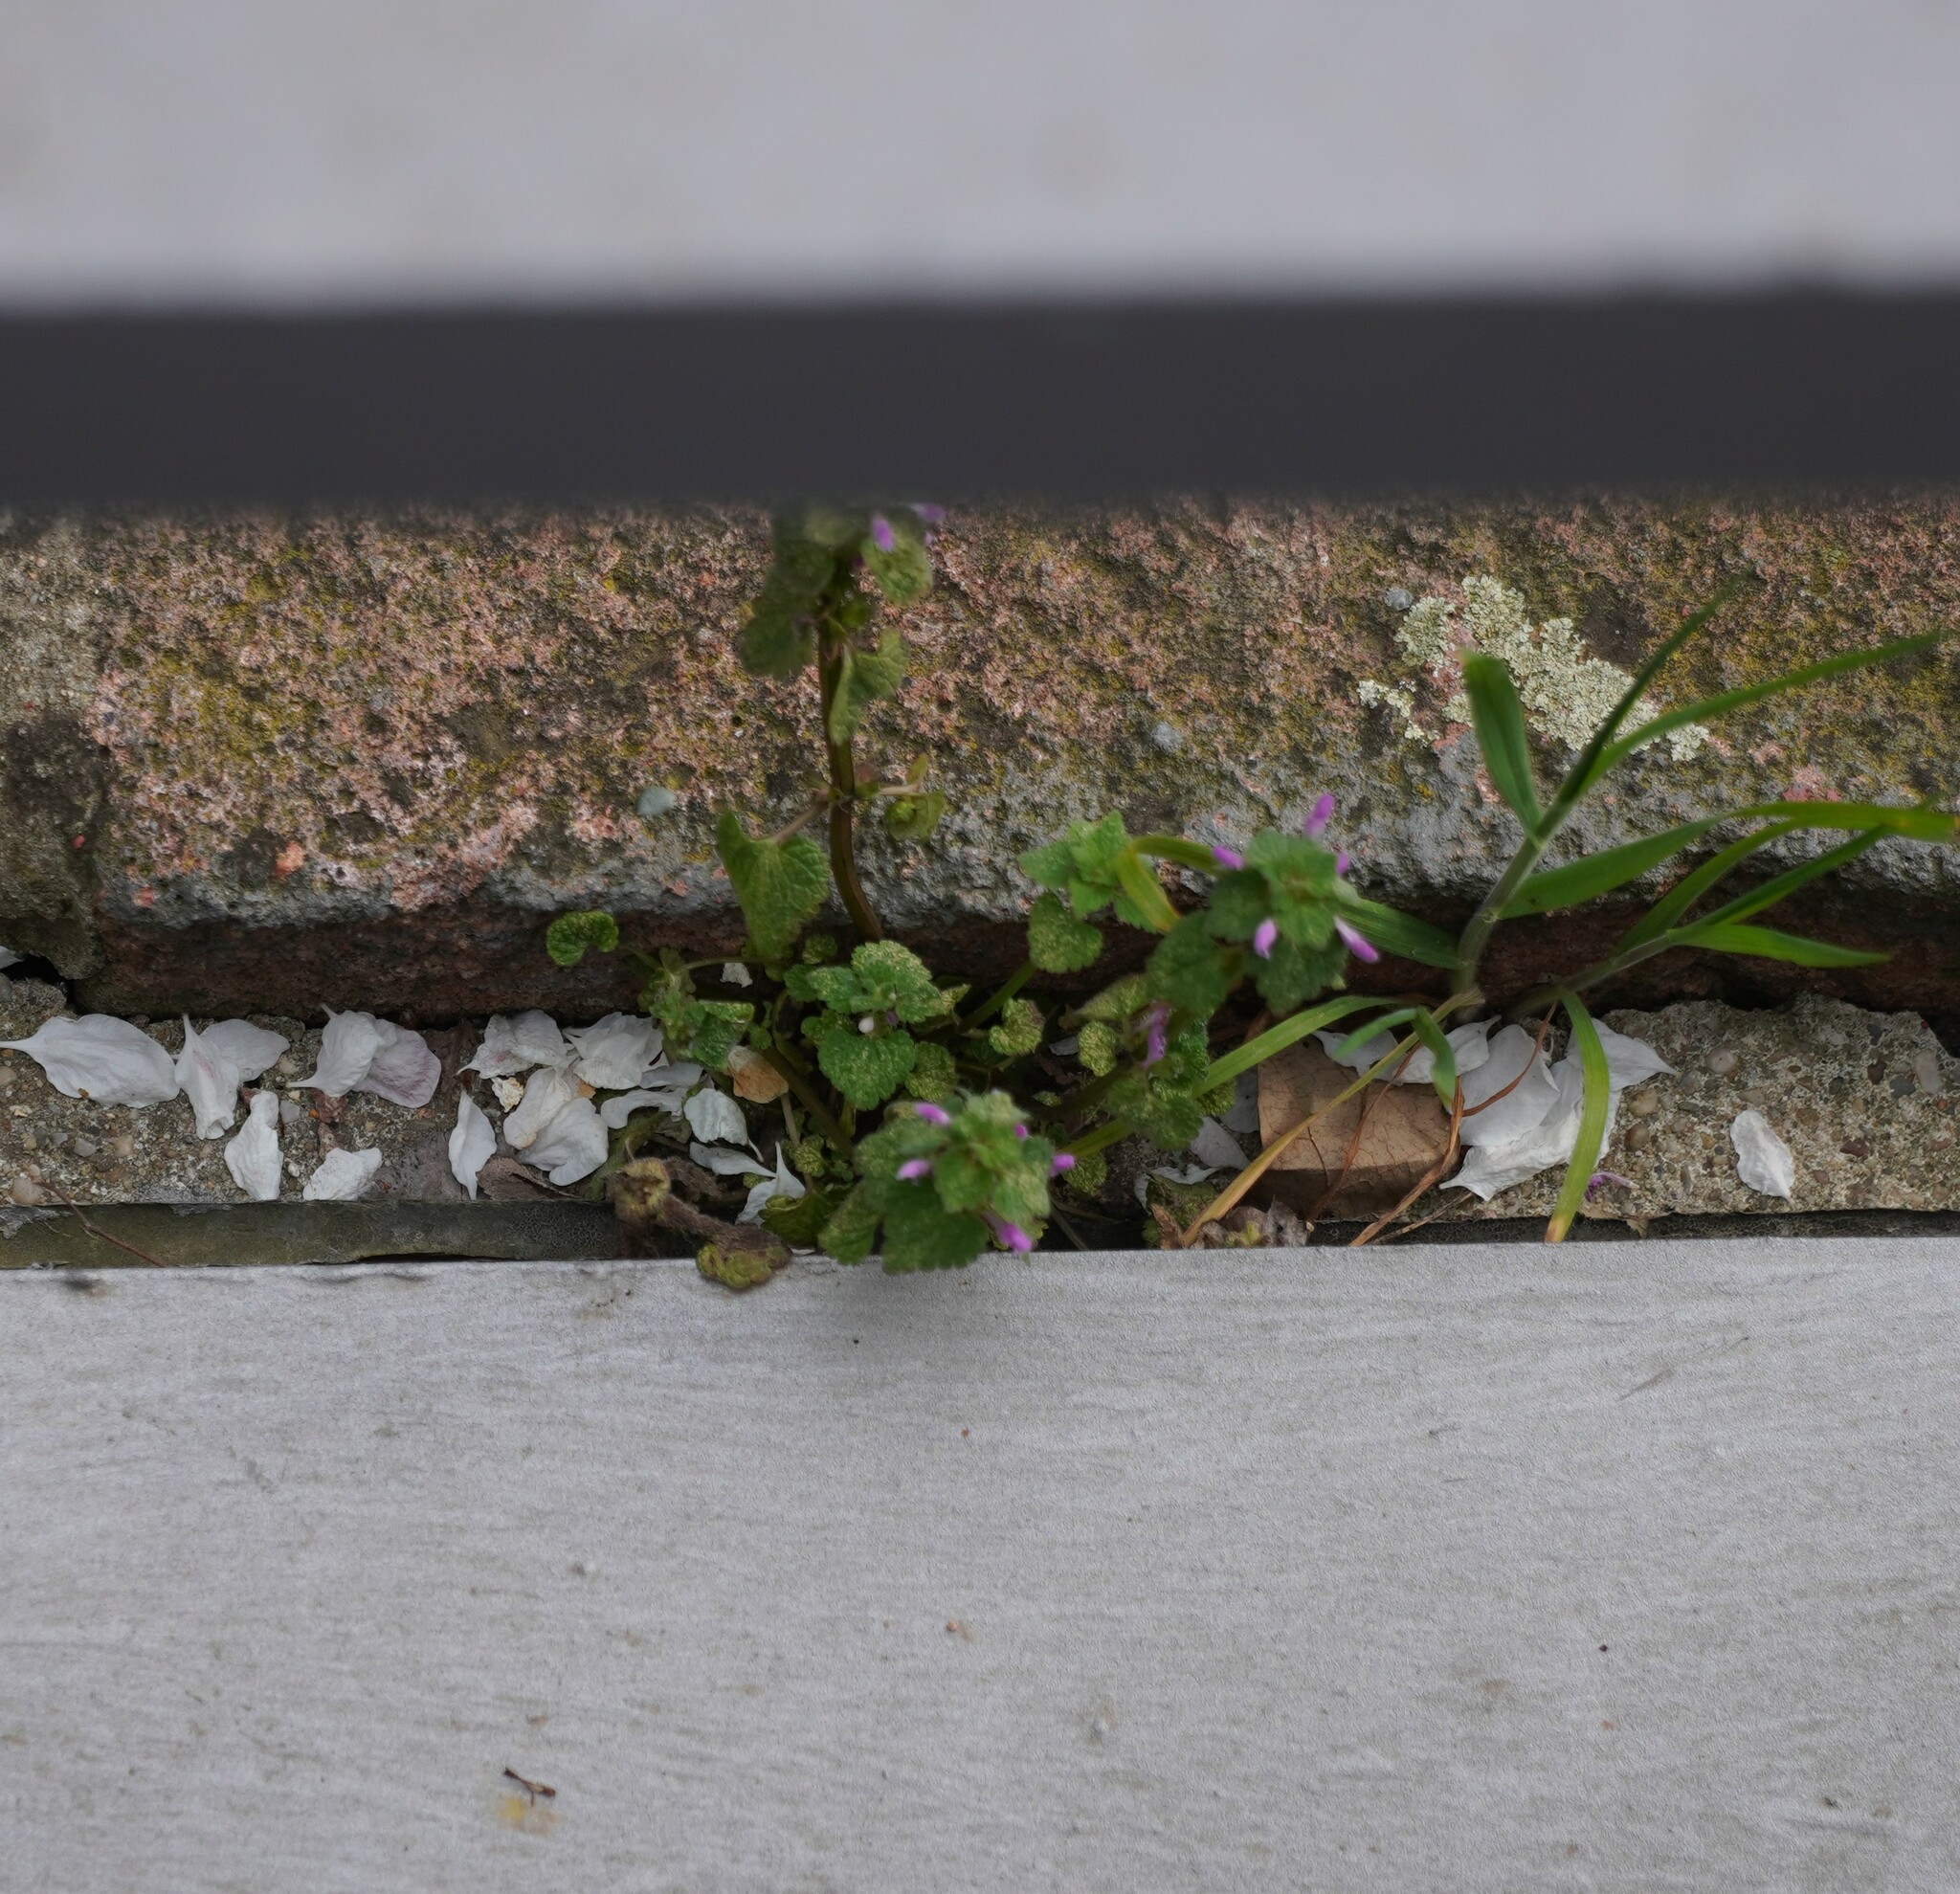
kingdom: Plantae
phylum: Tracheophyta
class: Magnoliopsida
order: Lamiales
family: Lamiaceae
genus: Lamium
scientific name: Lamium purpureum
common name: Red dead-nettle
